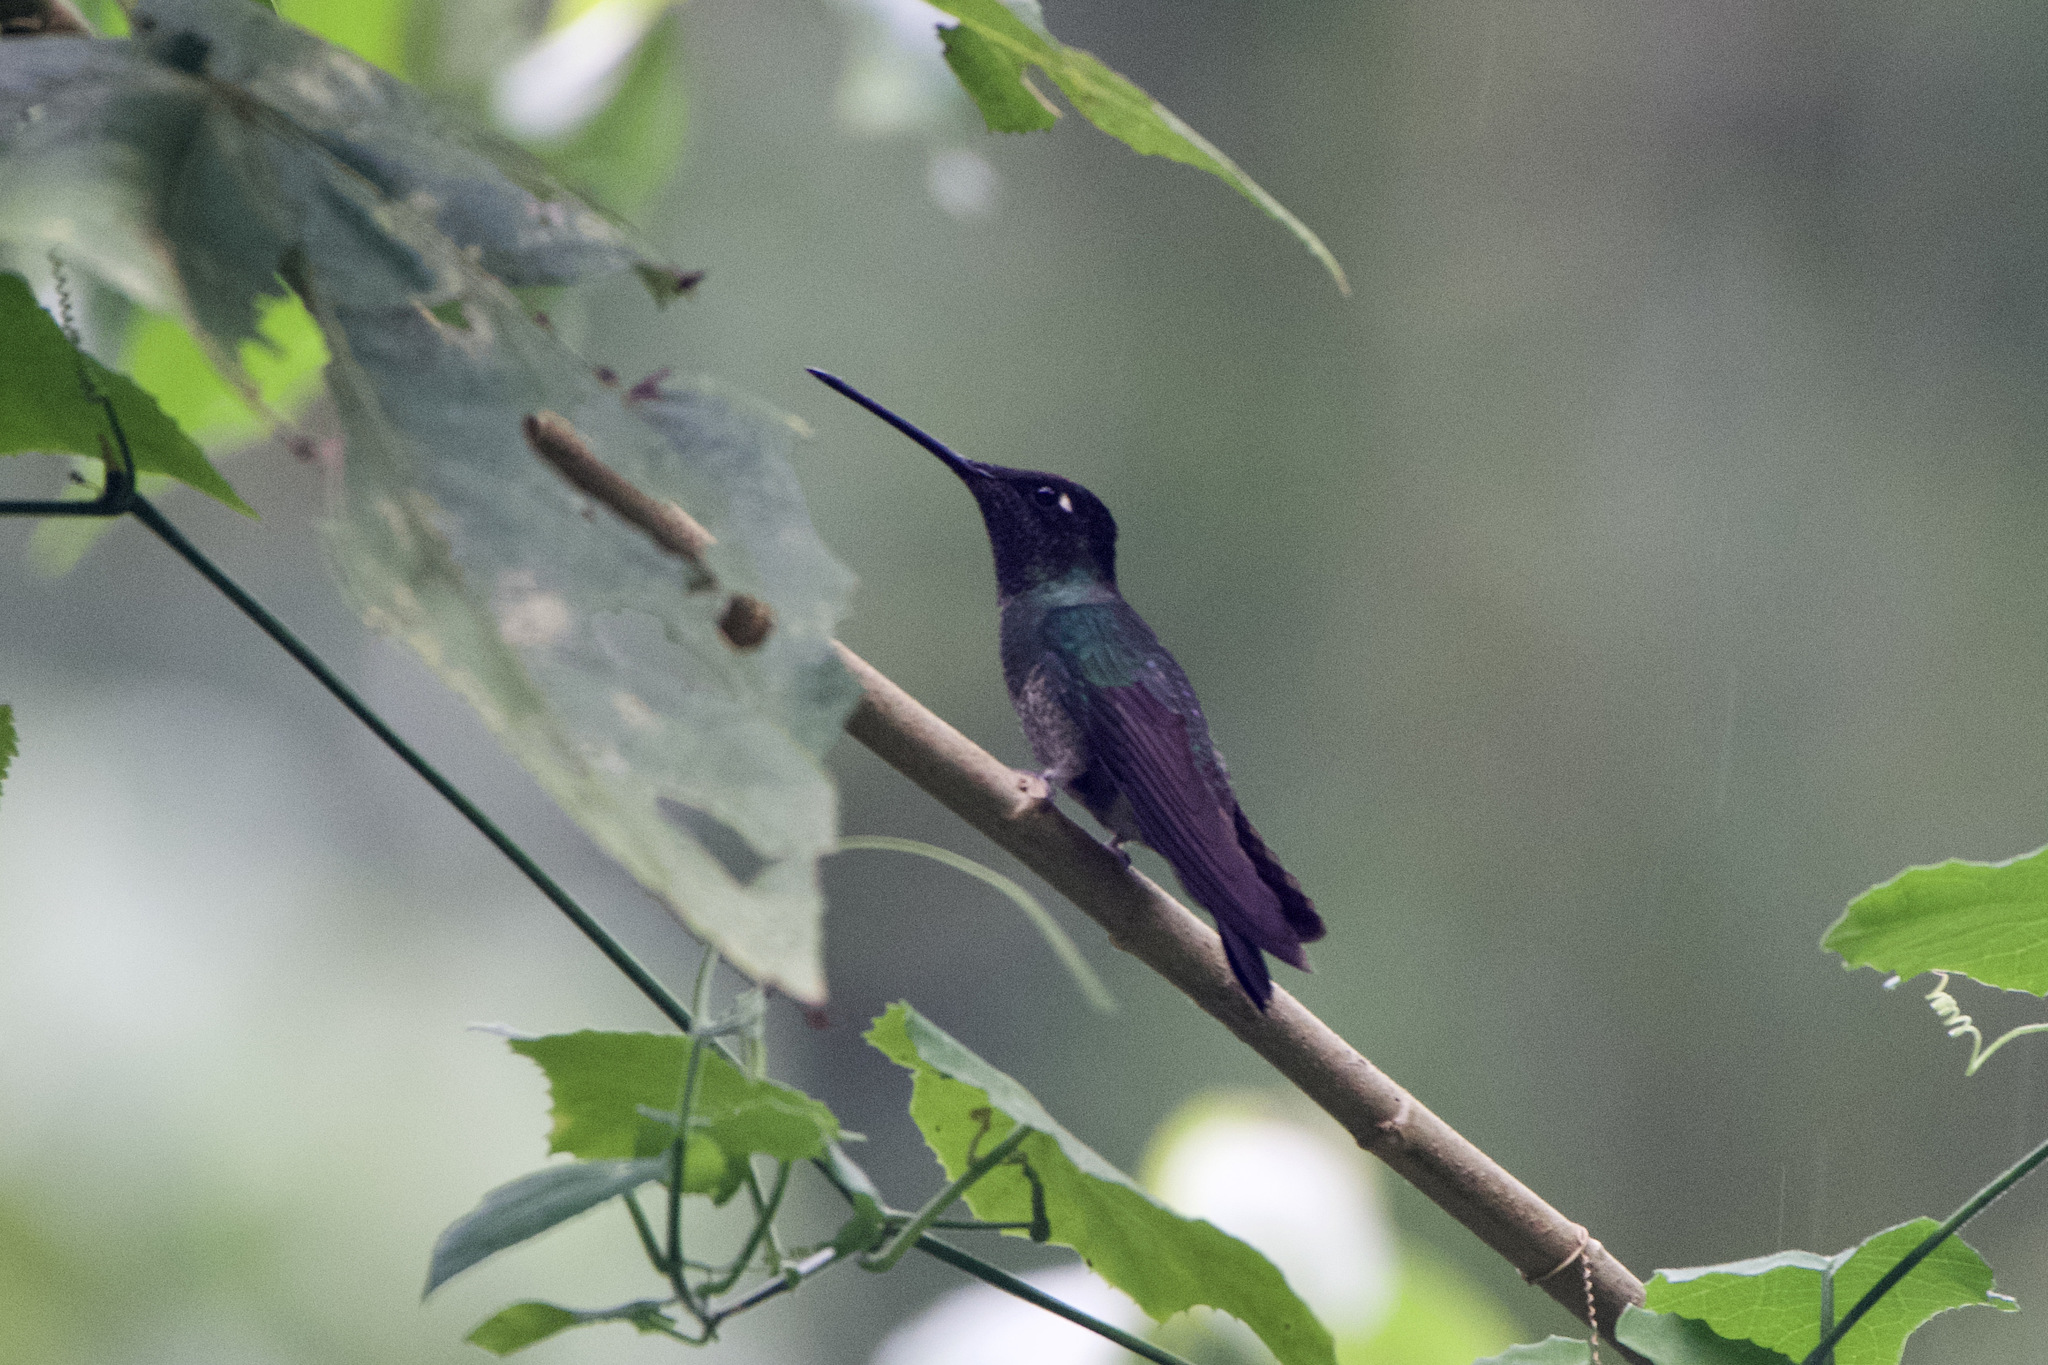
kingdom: Animalia
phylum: Chordata
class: Aves
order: Apodiformes
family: Trochilidae
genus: Eugenes
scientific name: Eugenes spectabilis
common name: Talamanca hummingbird
